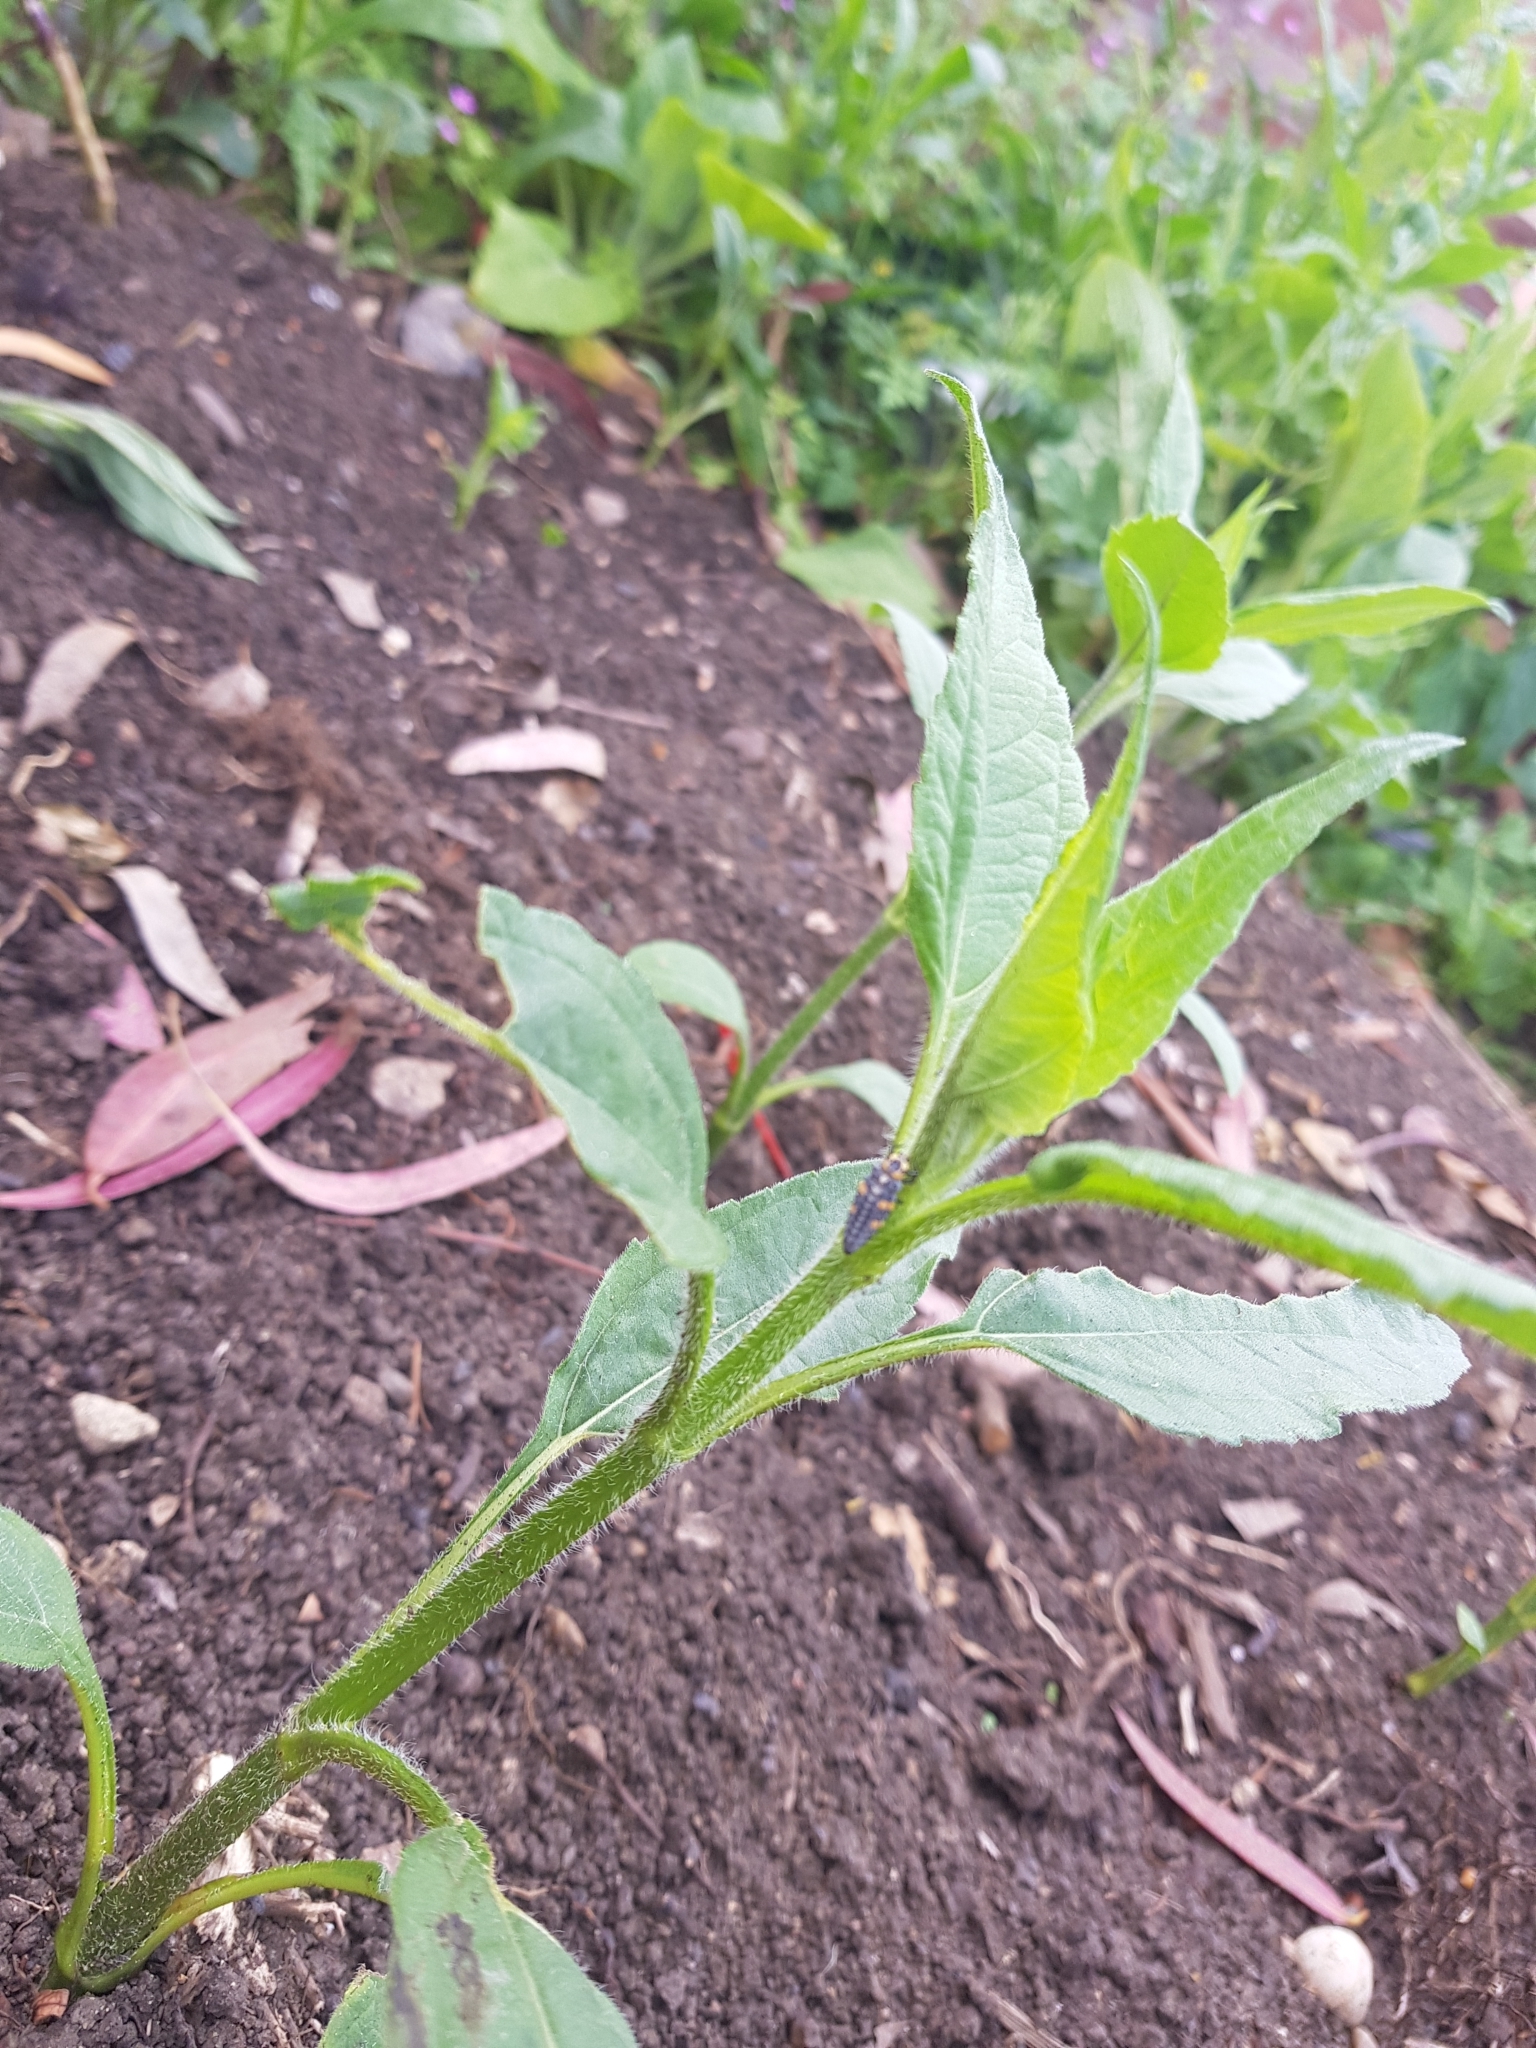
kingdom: Animalia
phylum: Arthropoda
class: Insecta
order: Coleoptera
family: Coccinellidae
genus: Coccinella
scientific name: Coccinella septempunctata
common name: Sevenspotted lady beetle
